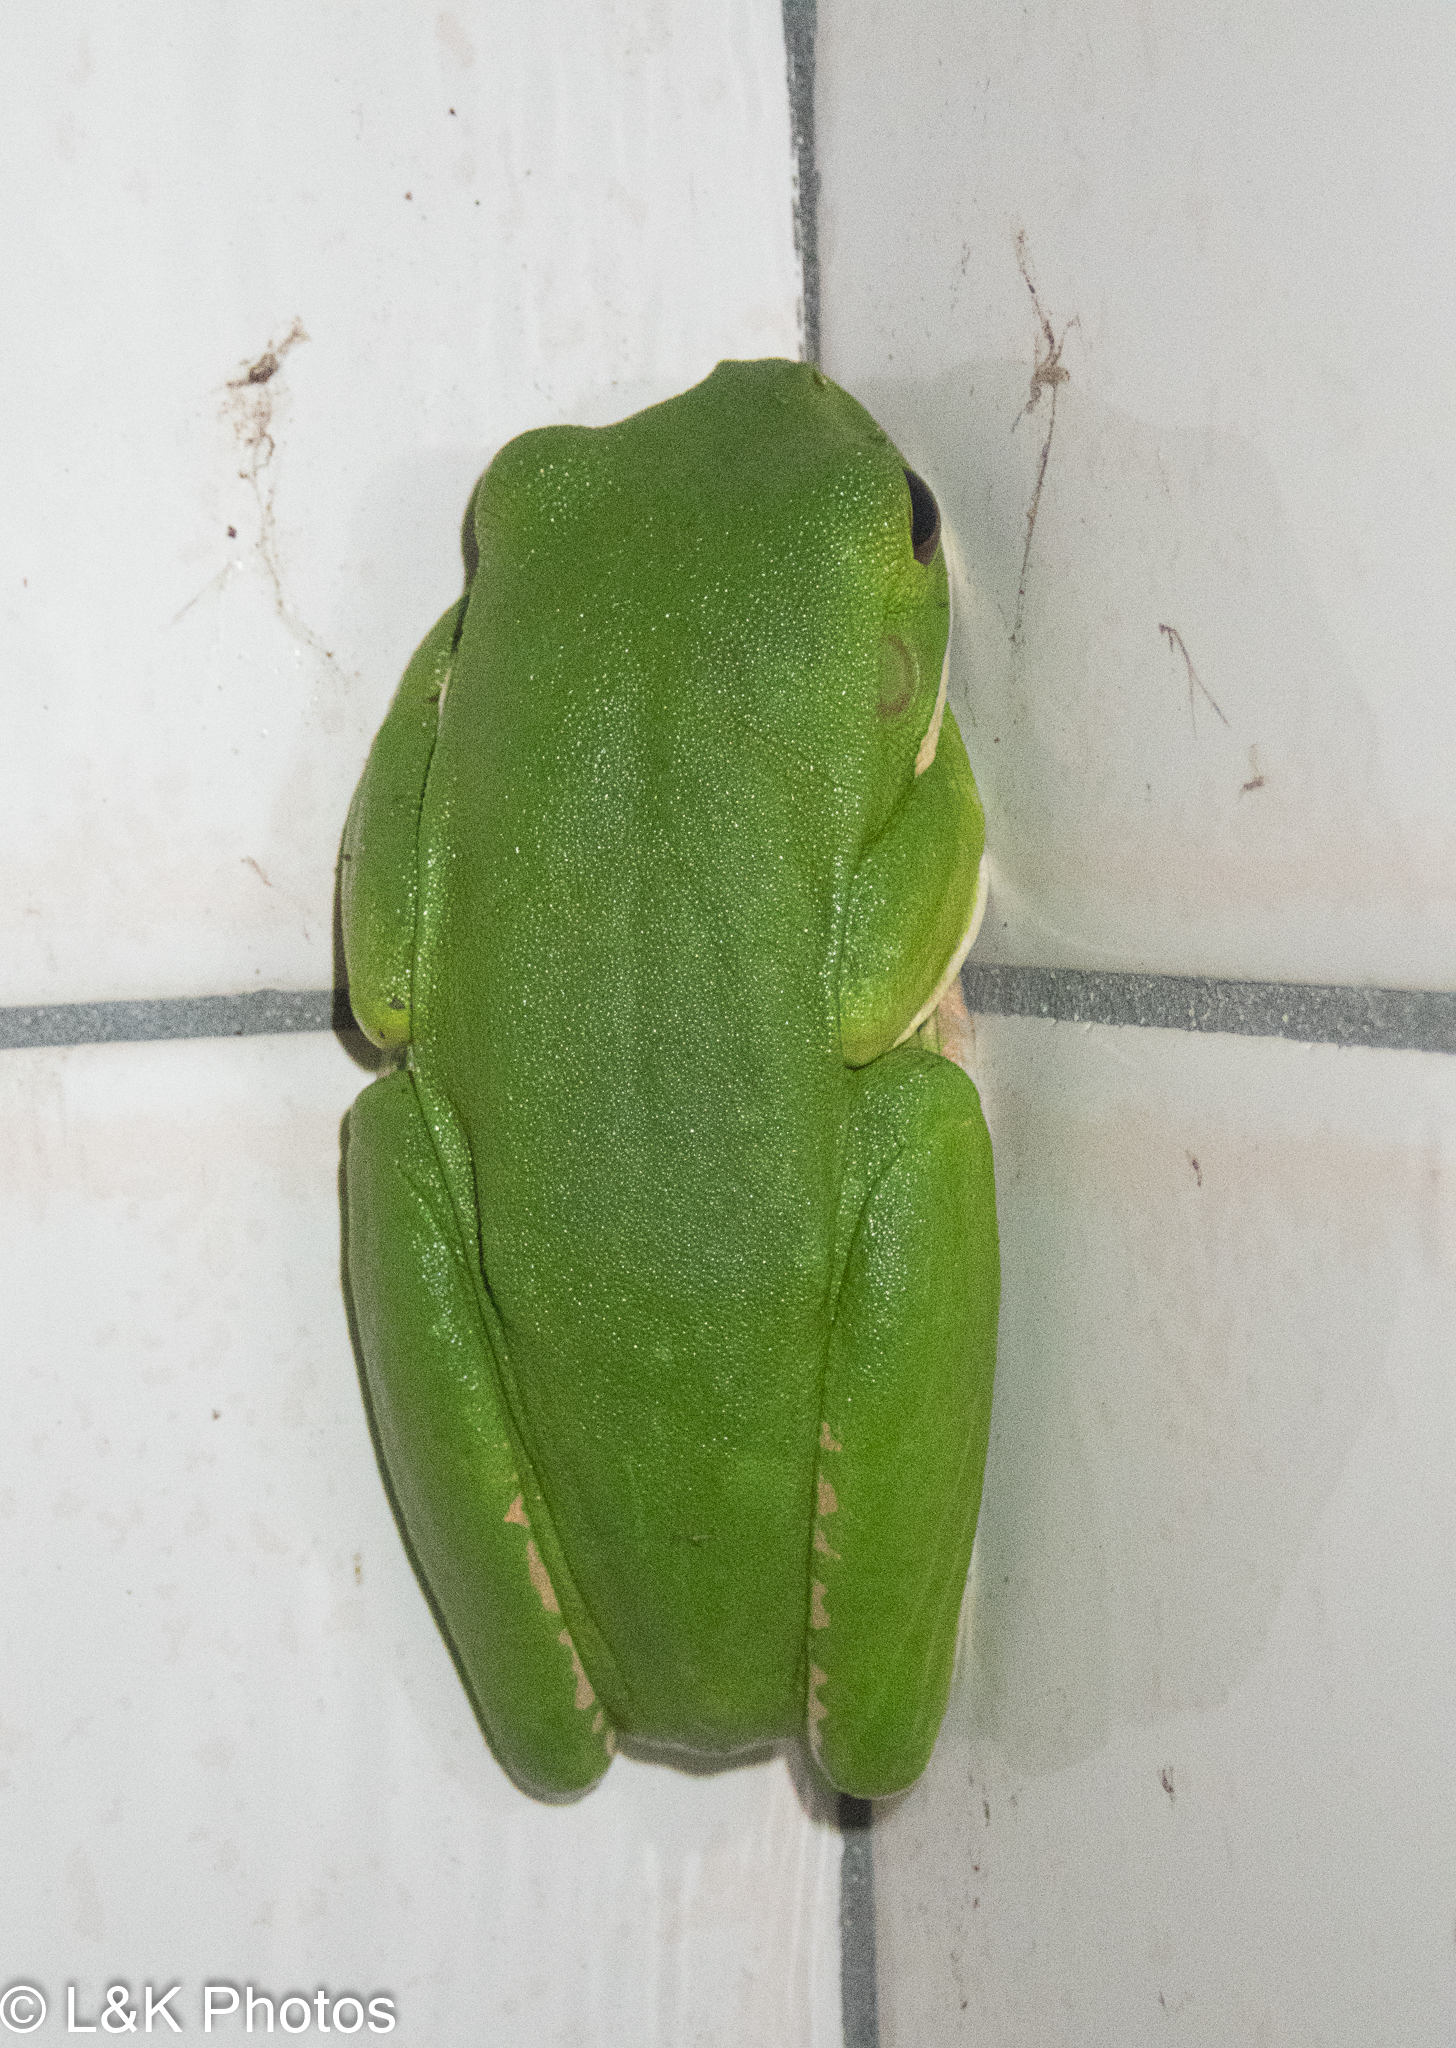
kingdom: Animalia
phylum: Chordata
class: Amphibia
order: Anura
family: Pelodryadidae
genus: Nyctimystes
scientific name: Nyctimystes infrafrenatus
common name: Australian giant treefrog
